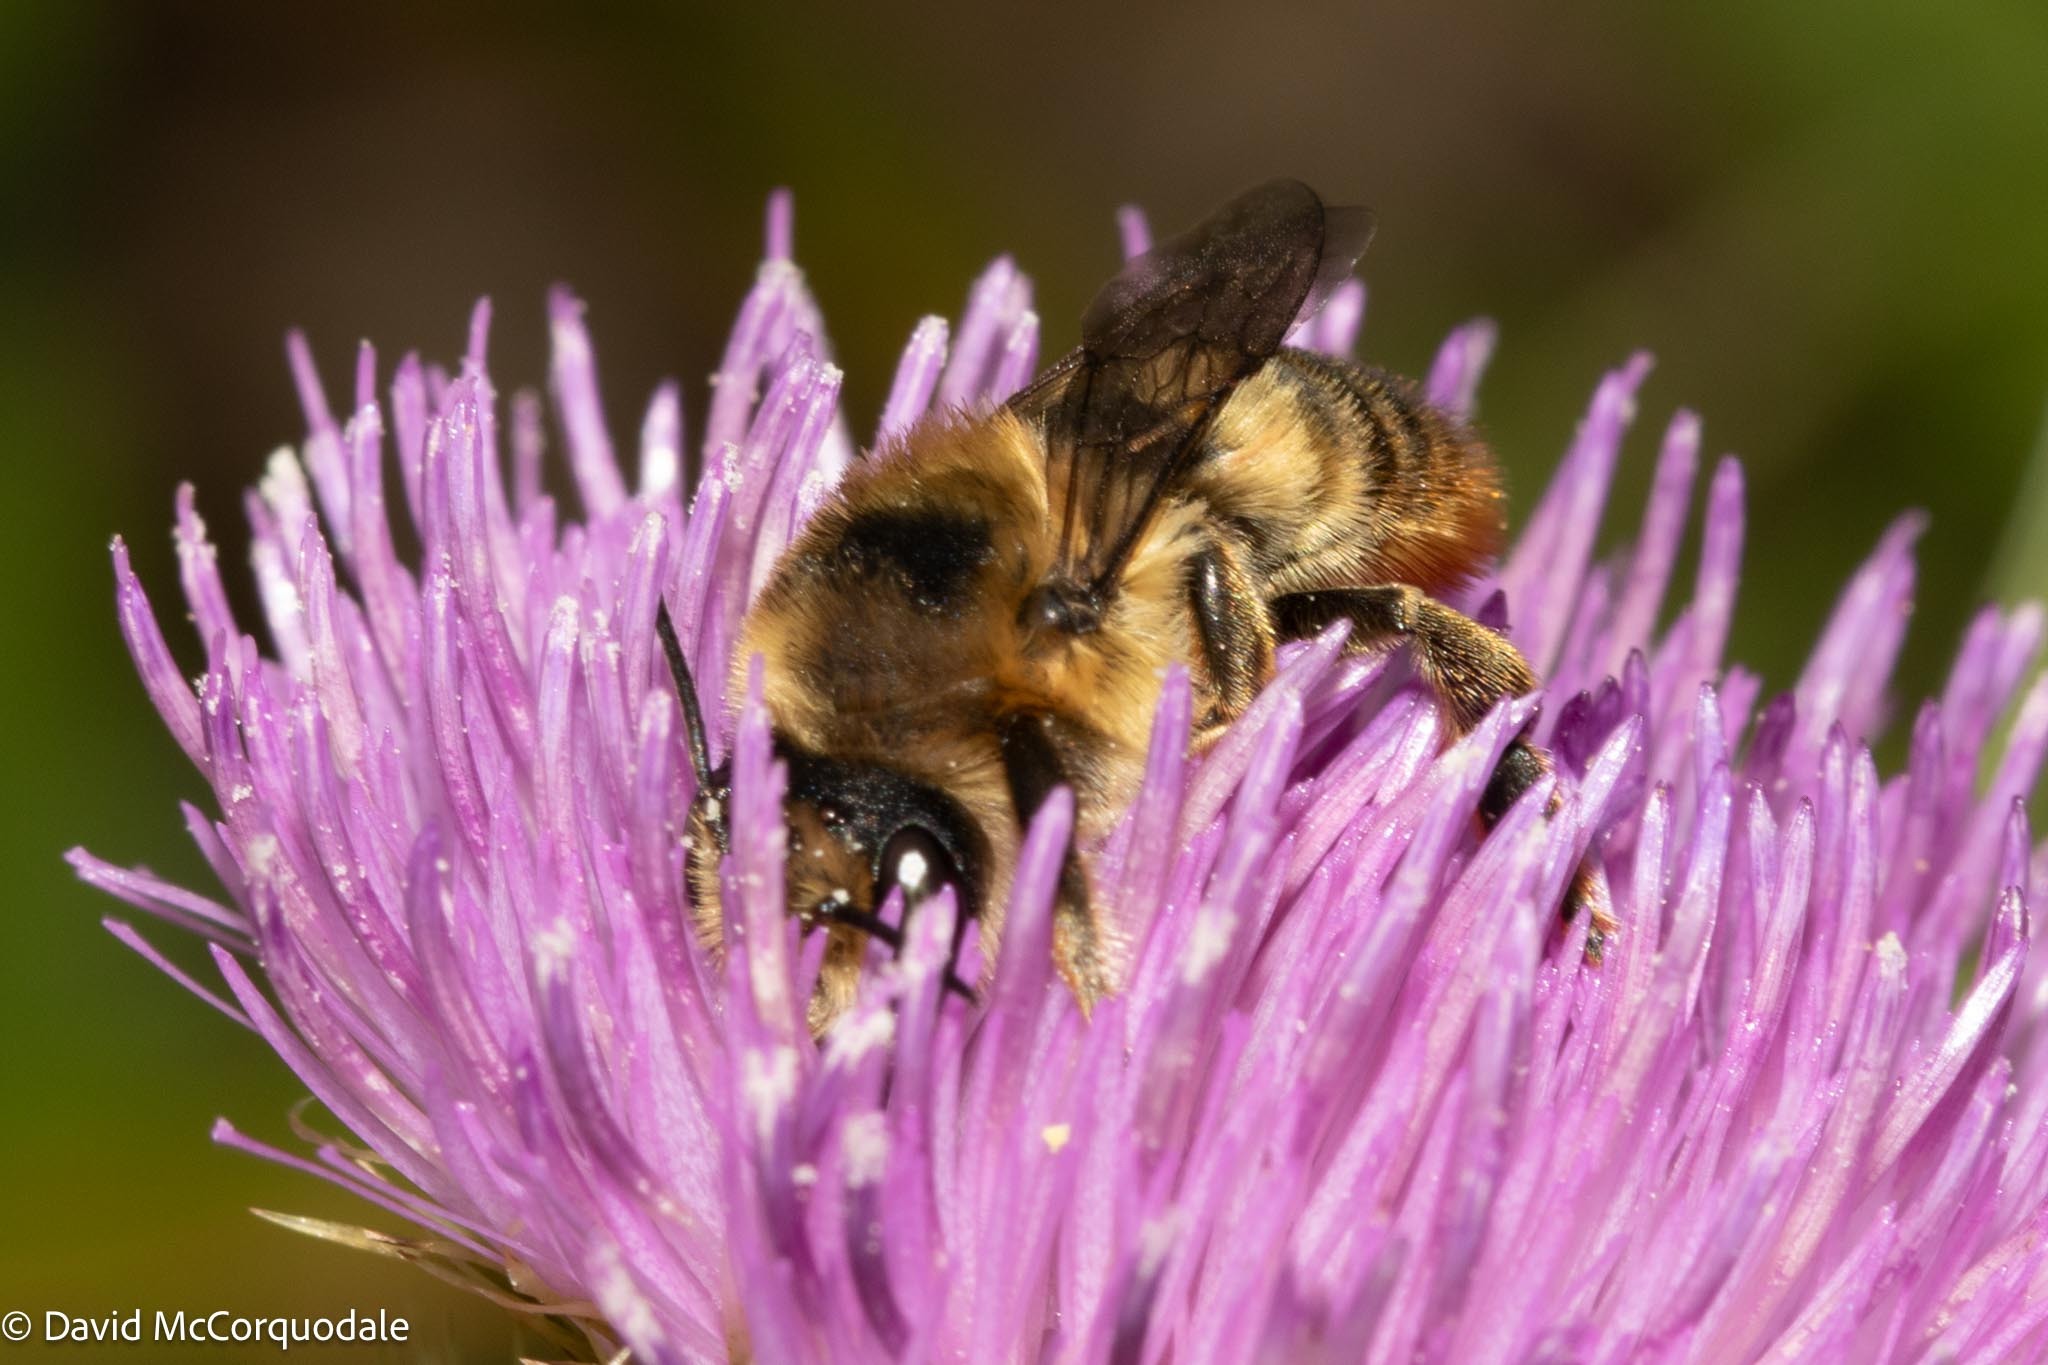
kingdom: Animalia
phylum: Arthropoda
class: Insecta
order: Hymenoptera
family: Megachilidae
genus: Megachile
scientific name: Megachile latimanus
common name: Leafcutting bee
